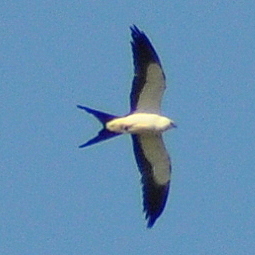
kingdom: Animalia
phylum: Chordata
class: Aves
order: Accipitriformes
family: Accipitridae
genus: Elanoides
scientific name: Elanoides forficatus
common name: Swallow-tailed kite
